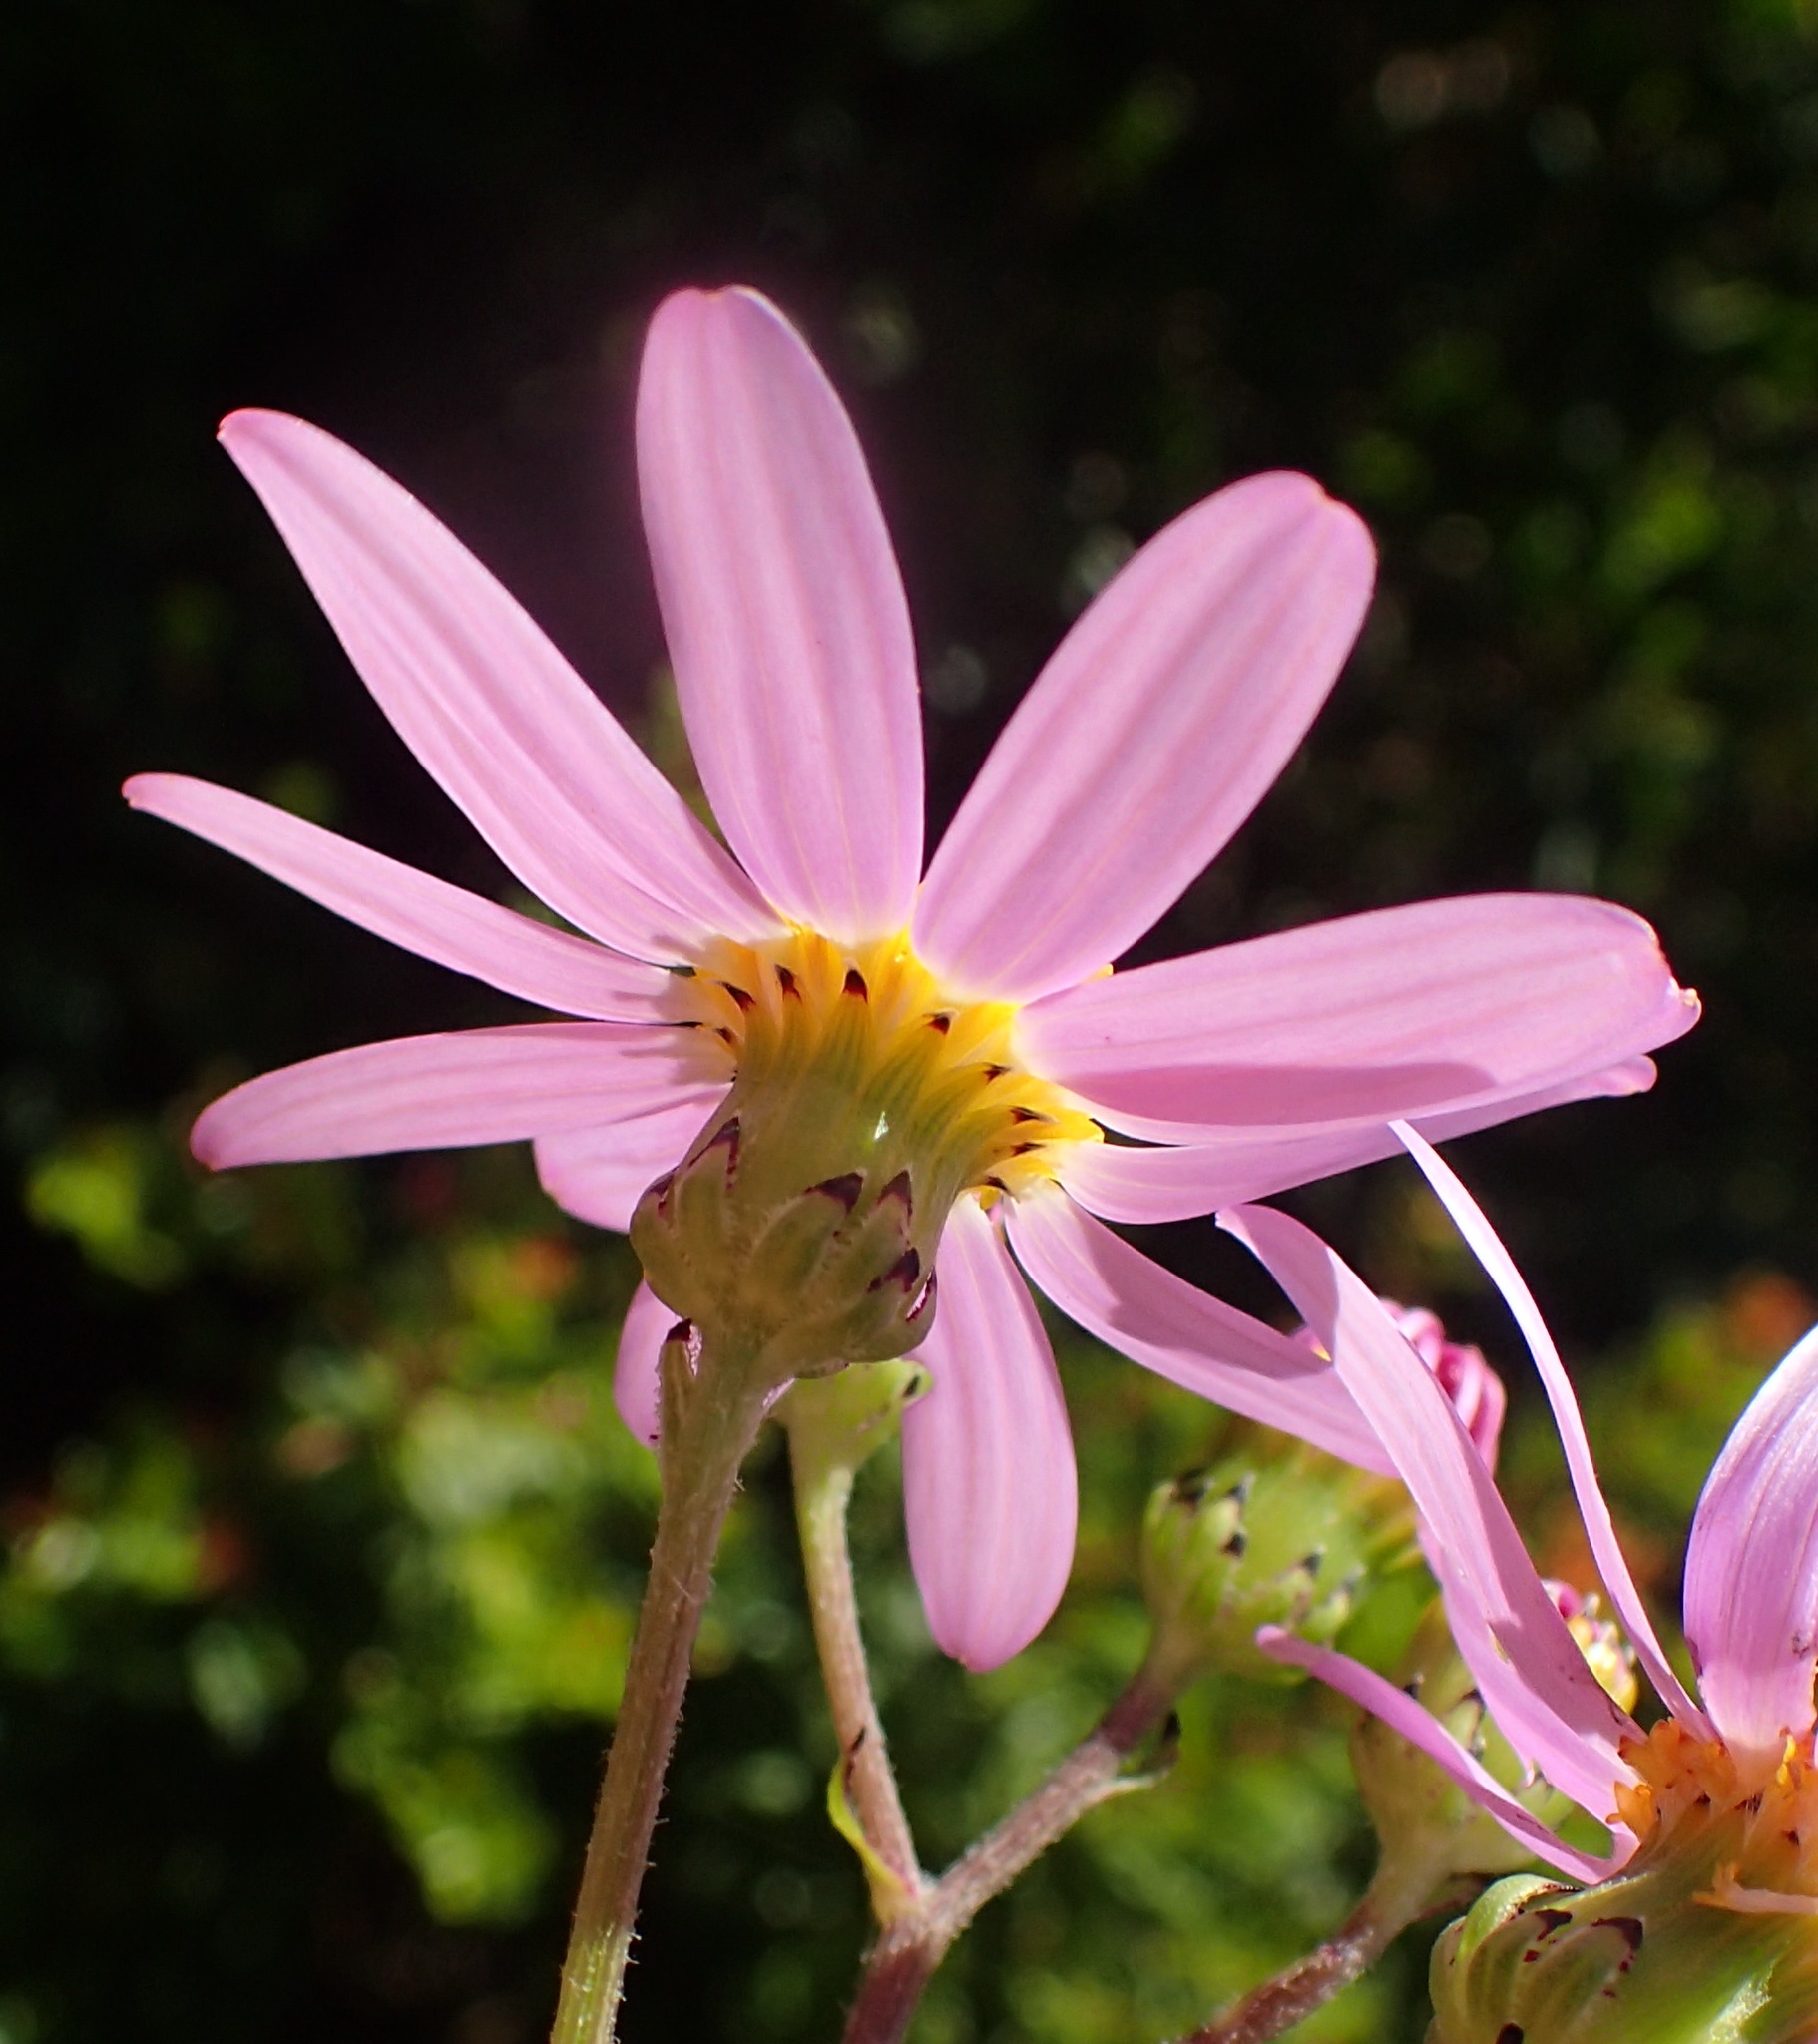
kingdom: Plantae
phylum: Tracheophyta
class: Magnoliopsida
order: Asterales
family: Asteraceae
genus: Senecio
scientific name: Senecio elegans
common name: Purple groundsel
